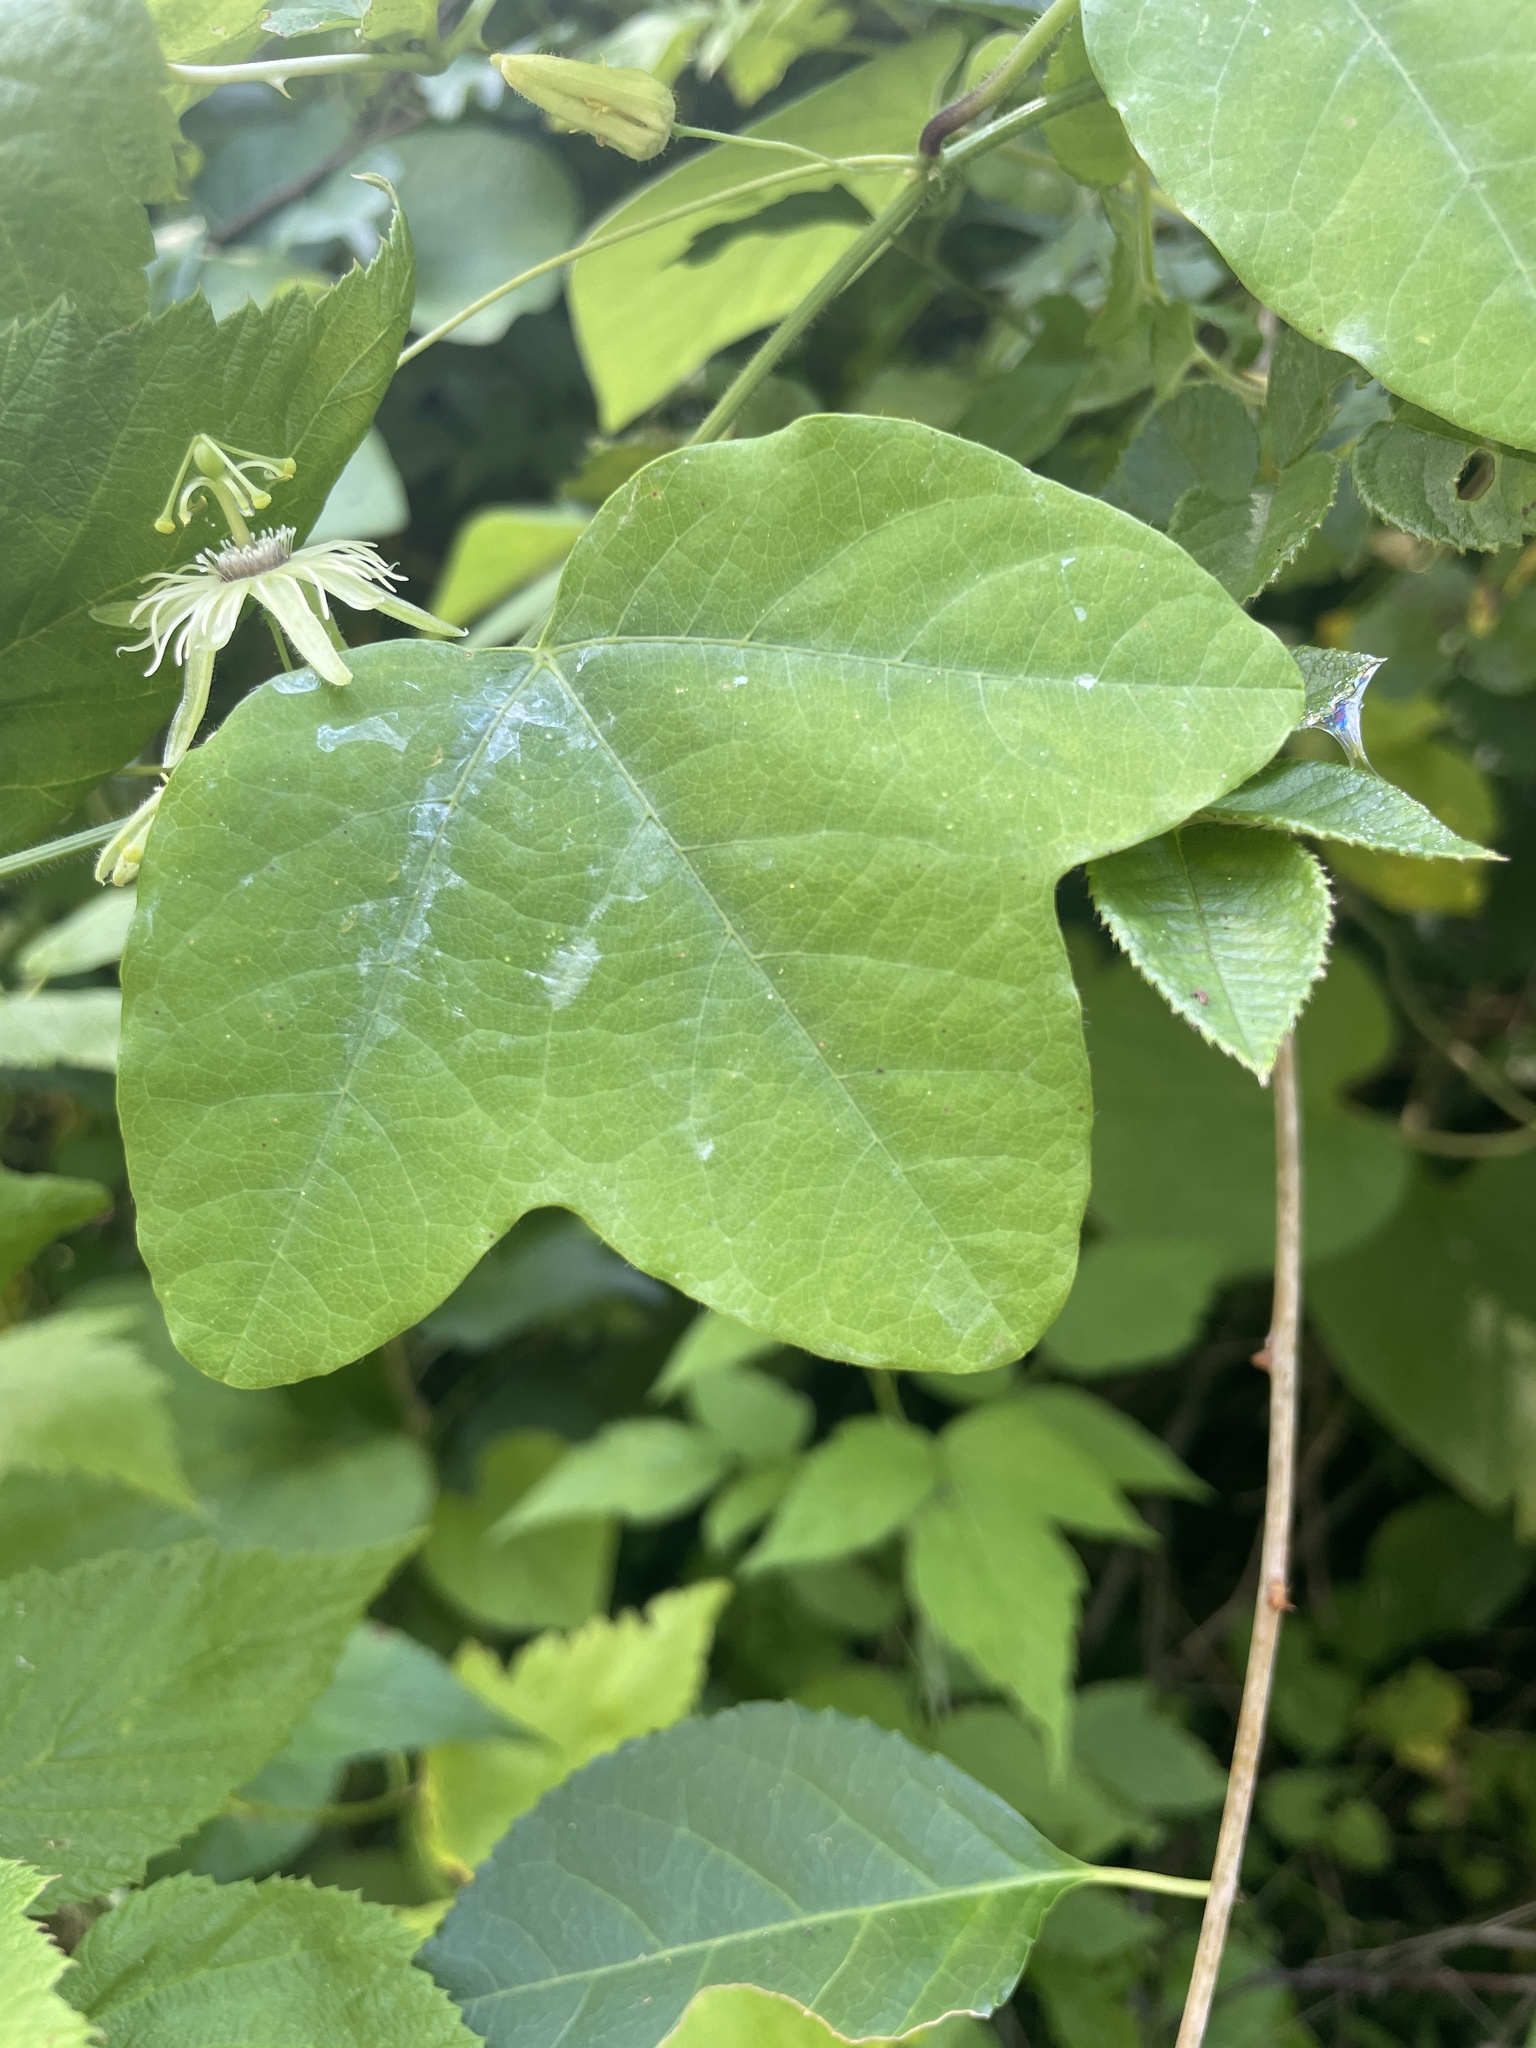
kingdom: Plantae
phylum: Tracheophyta
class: Magnoliopsida
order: Malpighiales
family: Passifloraceae
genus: Passiflora
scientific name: Passiflora lutea
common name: Yellow passionflower
